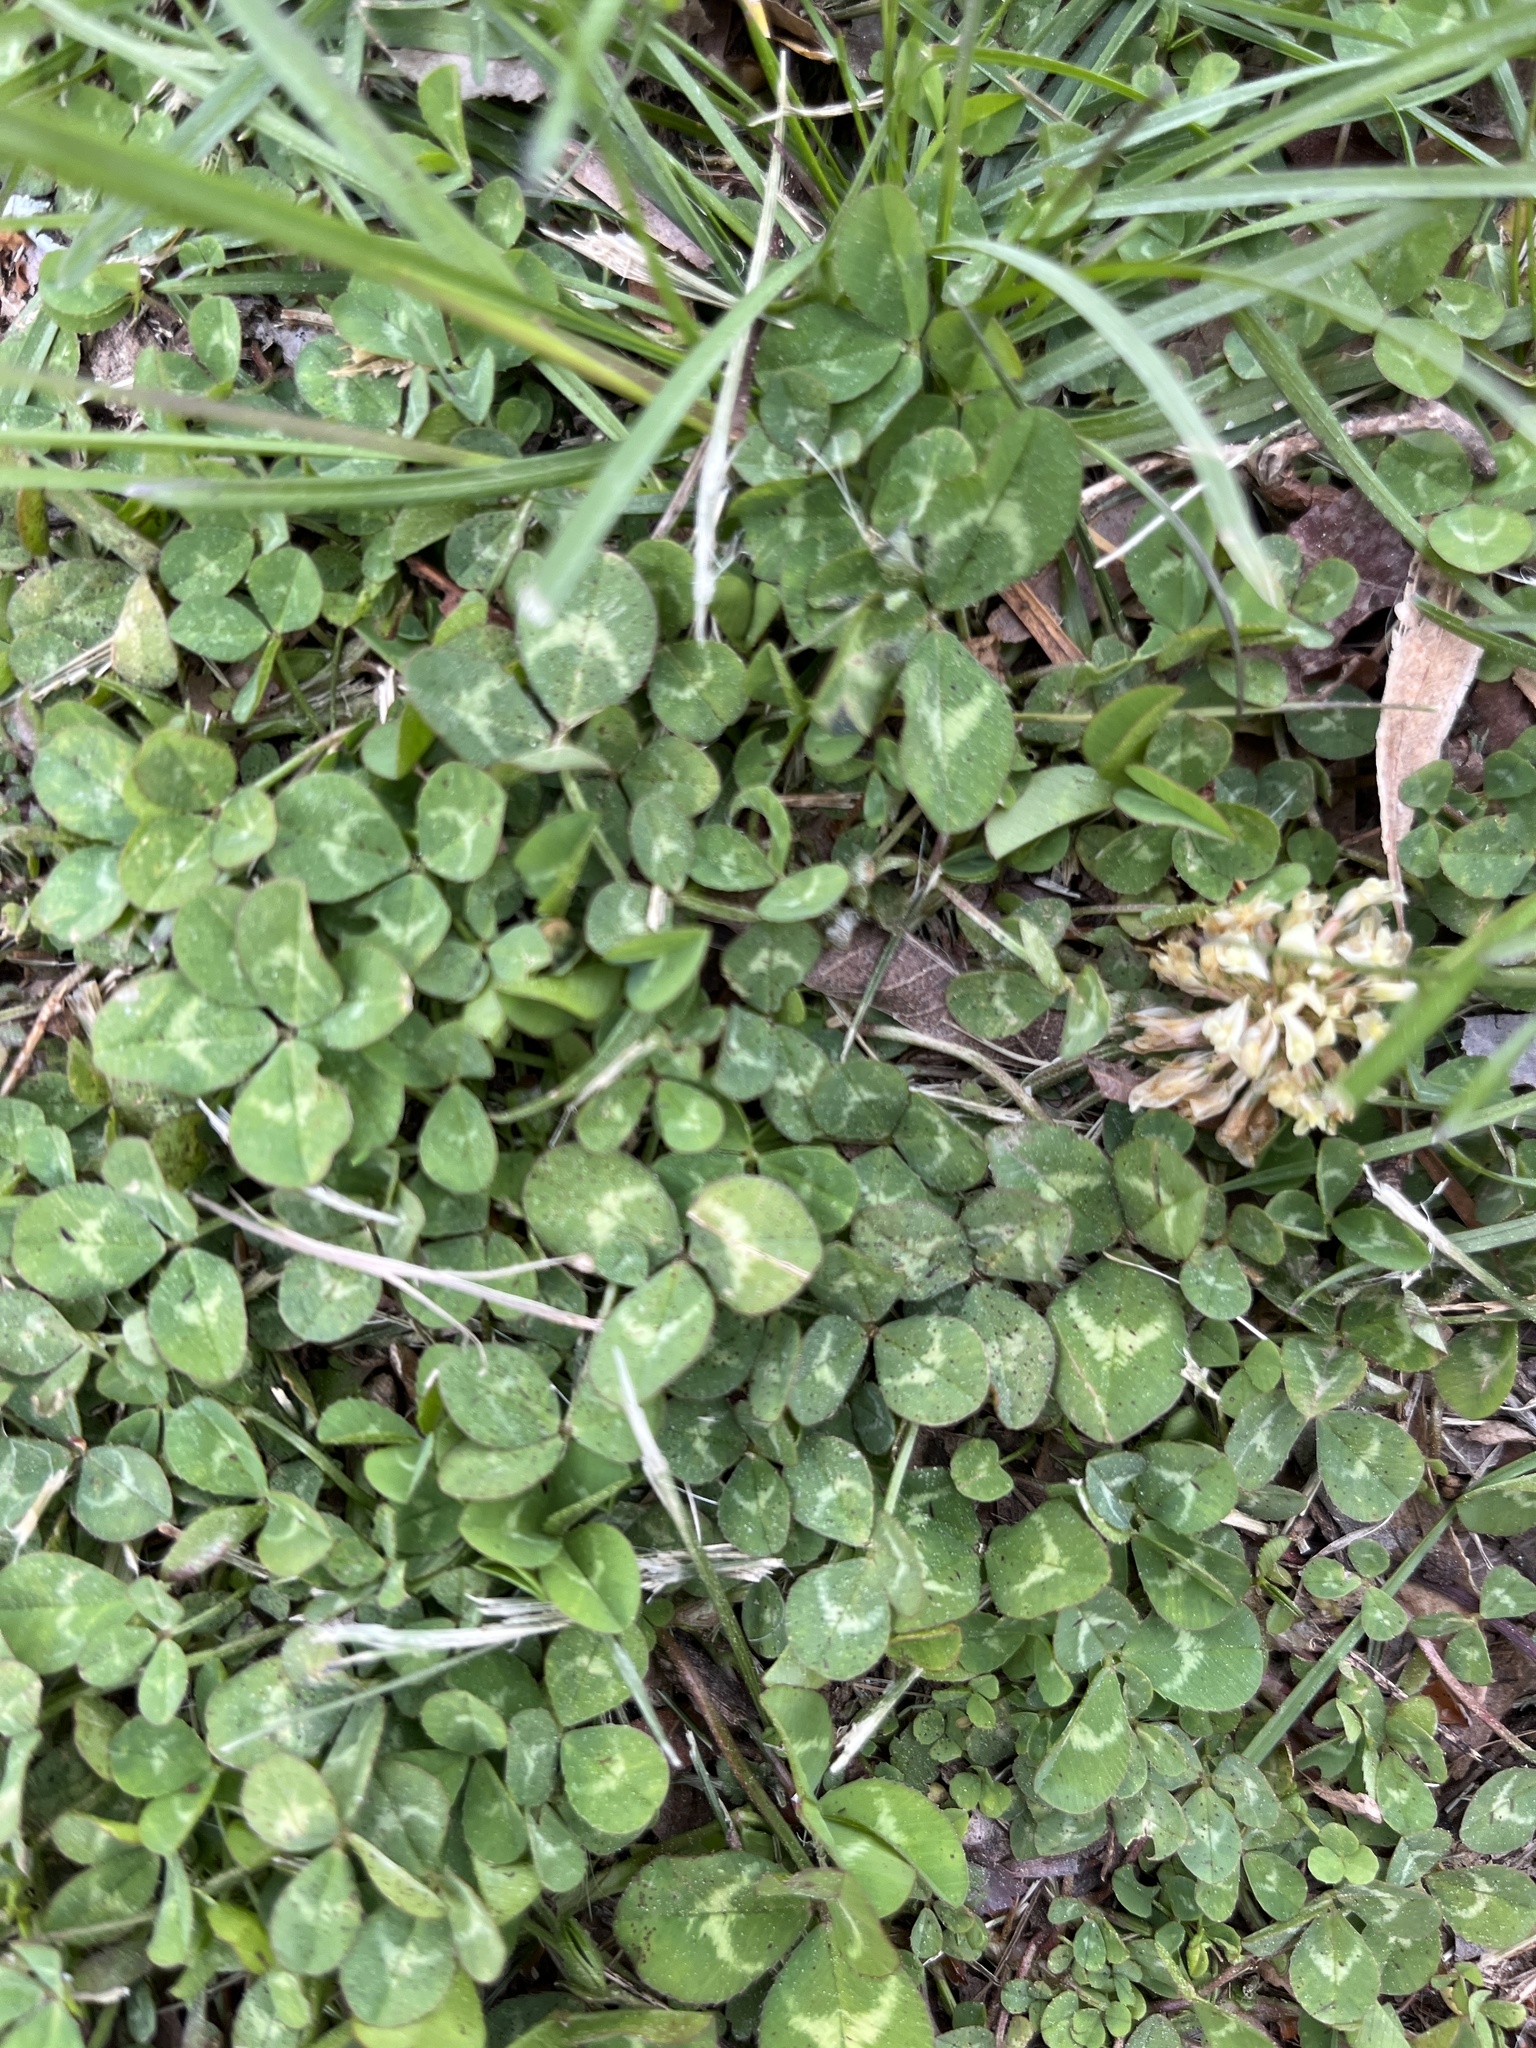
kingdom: Plantae
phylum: Tracheophyta
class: Magnoliopsida
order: Fabales
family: Fabaceae
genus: Trifolium
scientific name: Trifolium repens
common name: White clover
